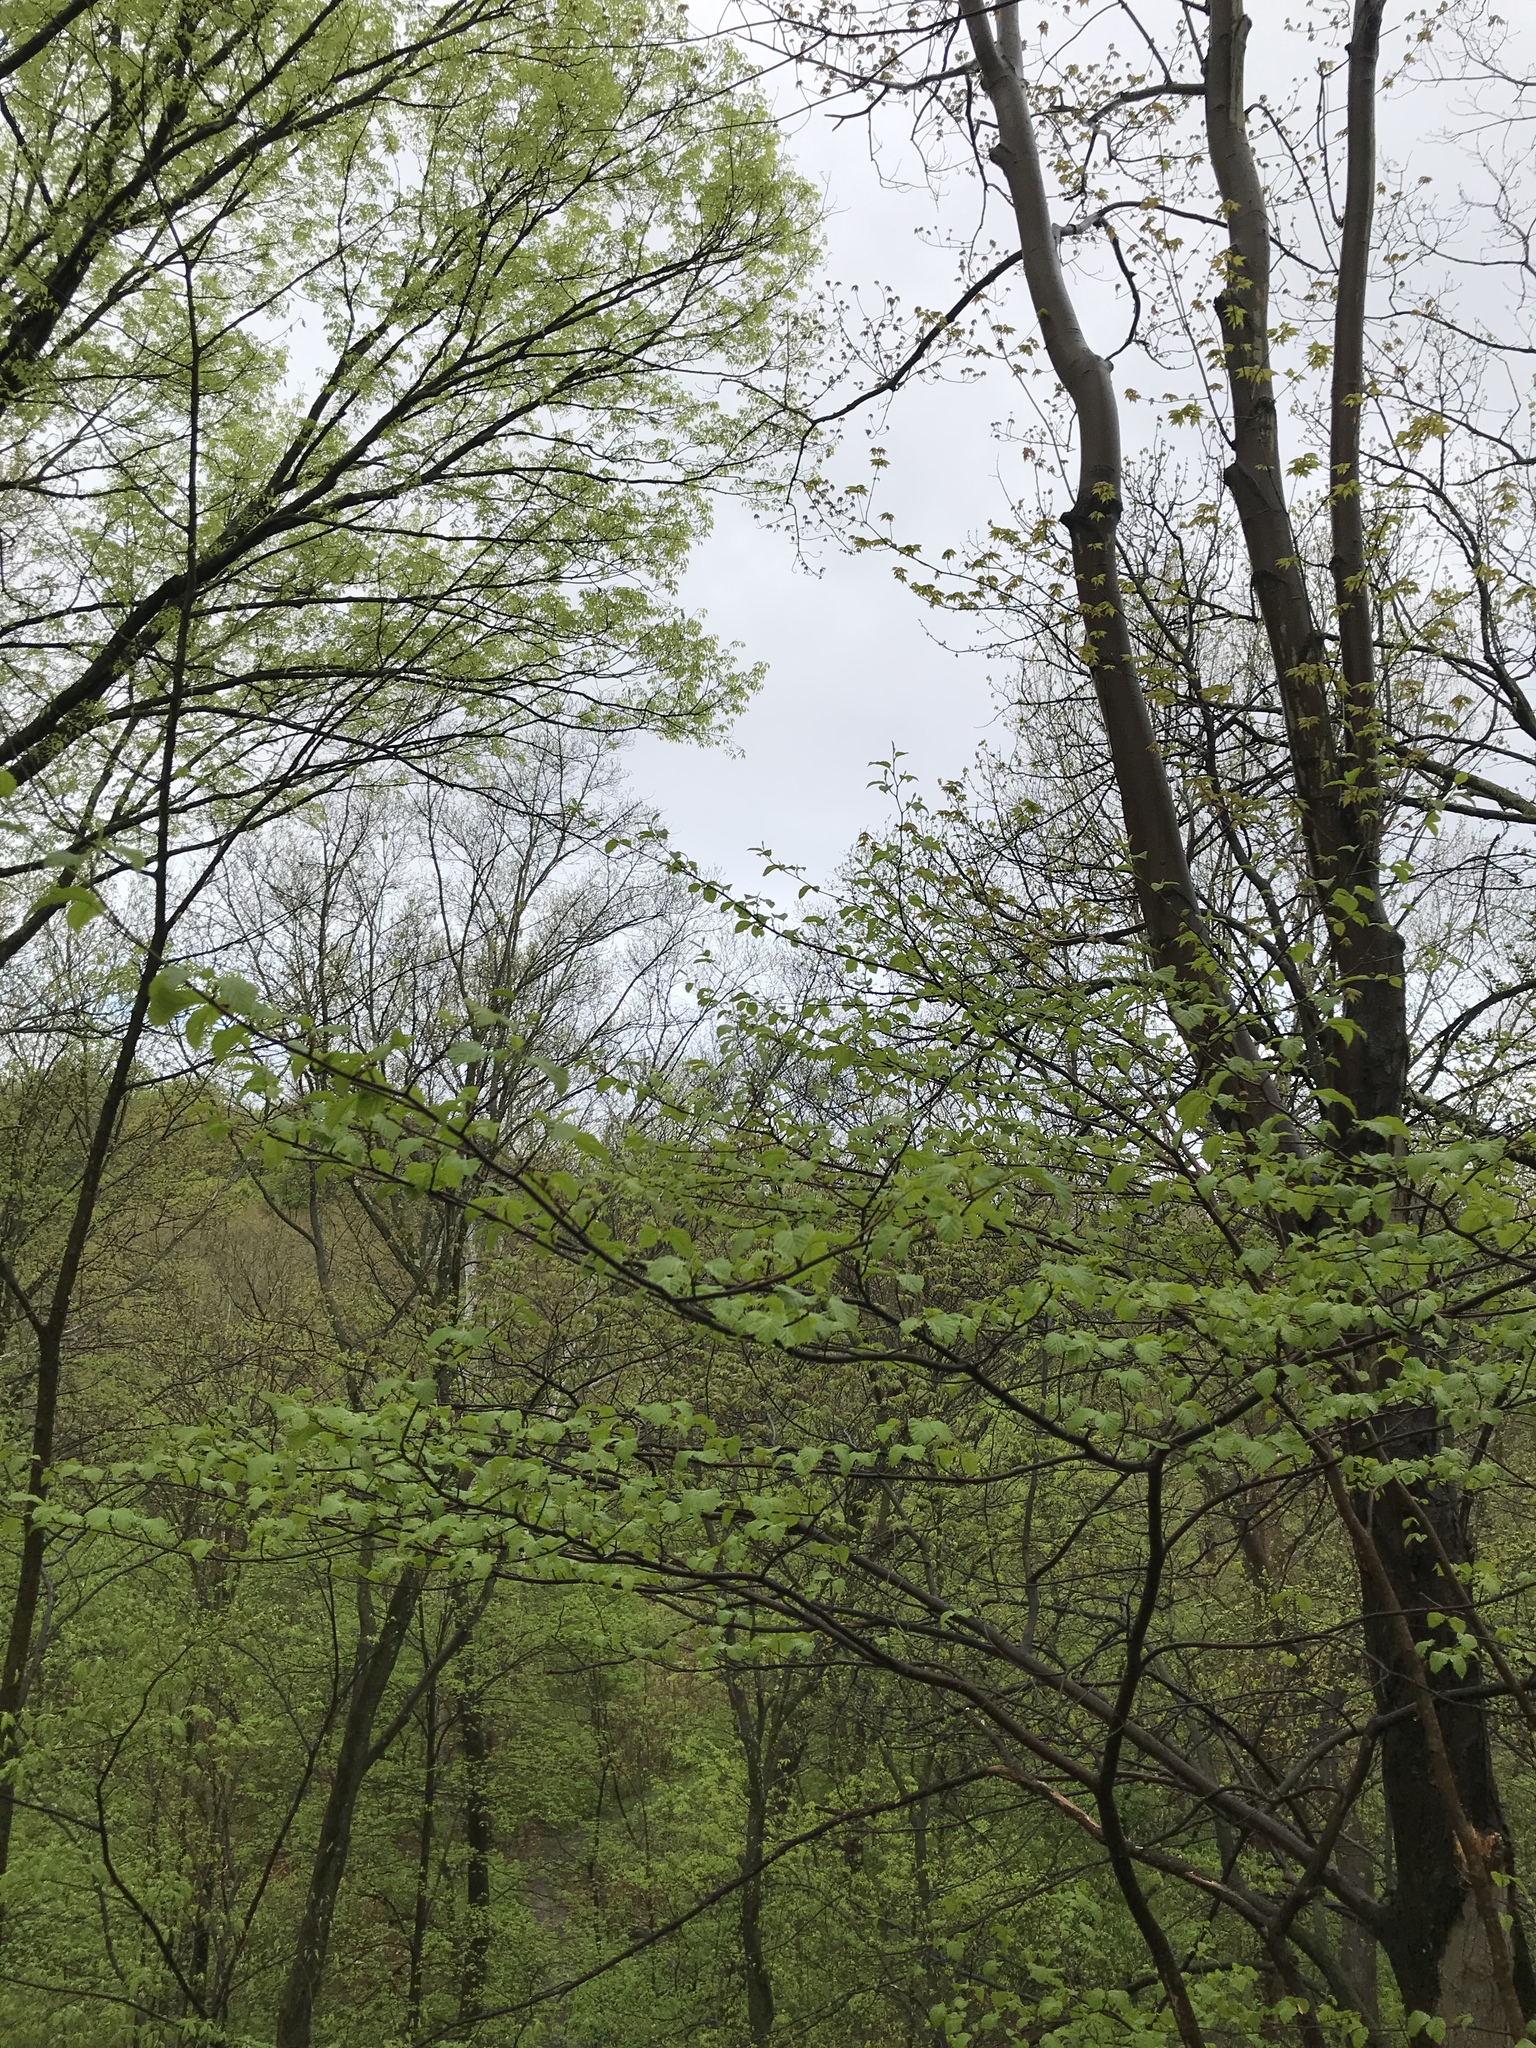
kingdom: Plantae
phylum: Tracheophyta
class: Magnoliopsida
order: Saxifragales
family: Hamamelidaceae
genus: Hamamelis
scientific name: Hamamelis virginiana
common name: Witch-hazel
